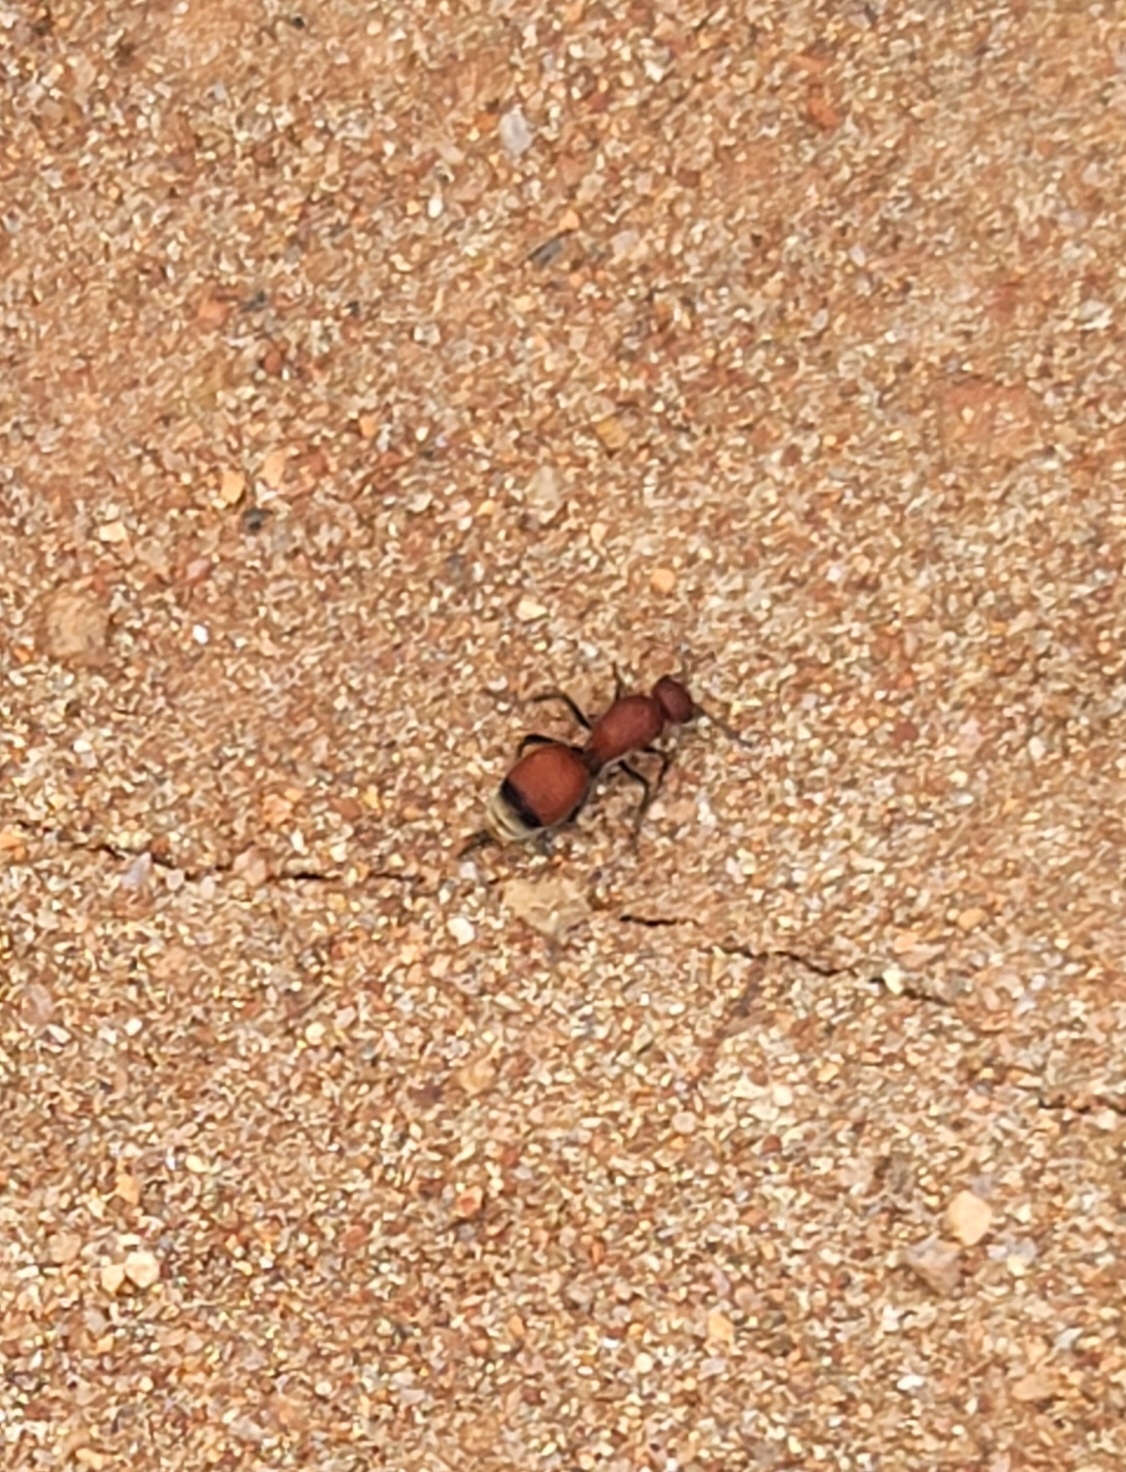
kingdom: Animalia
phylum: Arthropoda
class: Insecta
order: Hymenoptera
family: Mutillidae
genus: Dasymutilla
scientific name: Dasymutilla
